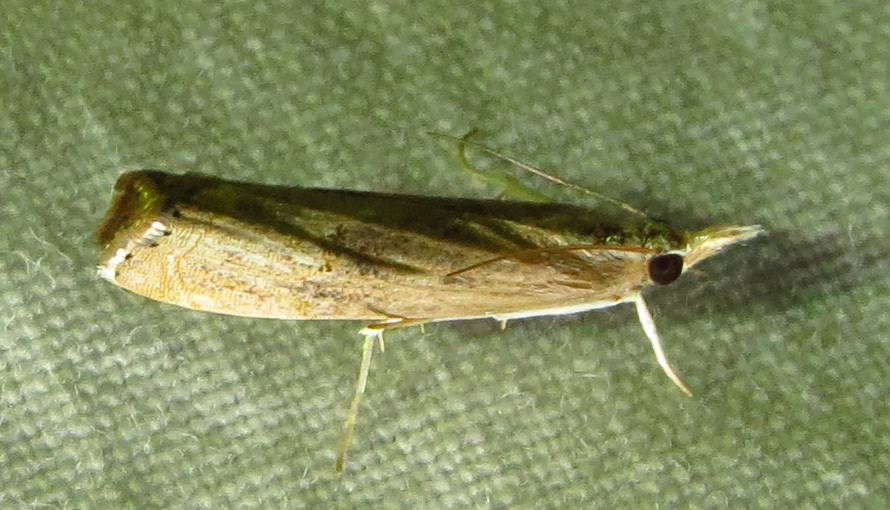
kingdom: Animalia
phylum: Arthropoda
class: Insecta
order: Lepidoptera
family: Crambidae
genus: Parapediasia
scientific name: Parapediasia teterellus
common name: Bluegrass webworm moth
